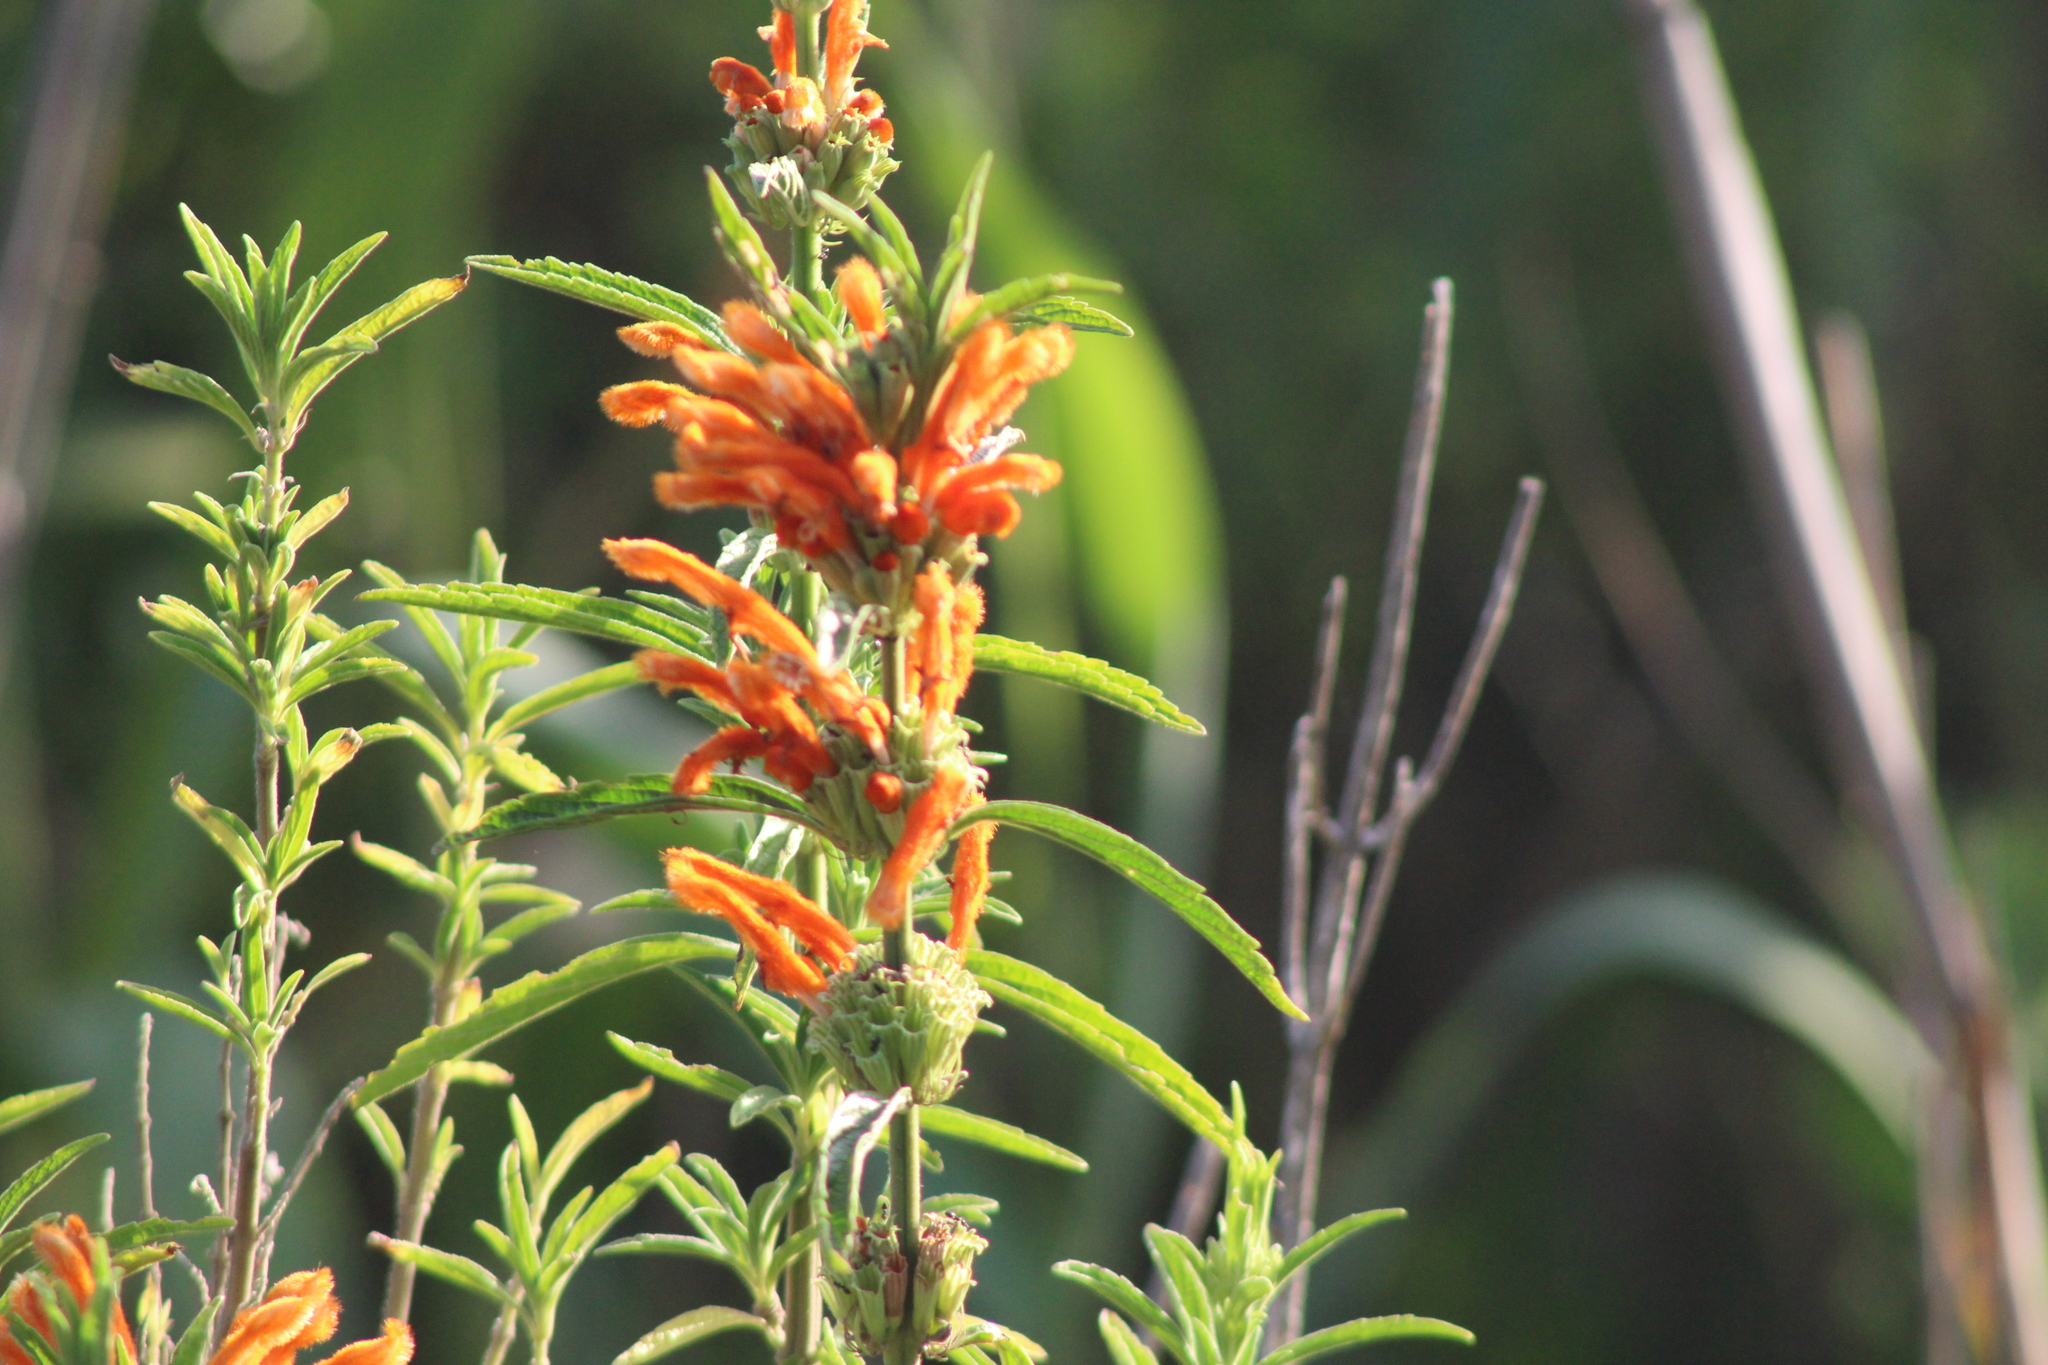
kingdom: Plantae
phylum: Tracheophyta
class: Magnoliopsida
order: Lamiales
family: Lamiaceae
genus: Leonotis
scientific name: Leonotis leonurus
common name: Lion's ear
